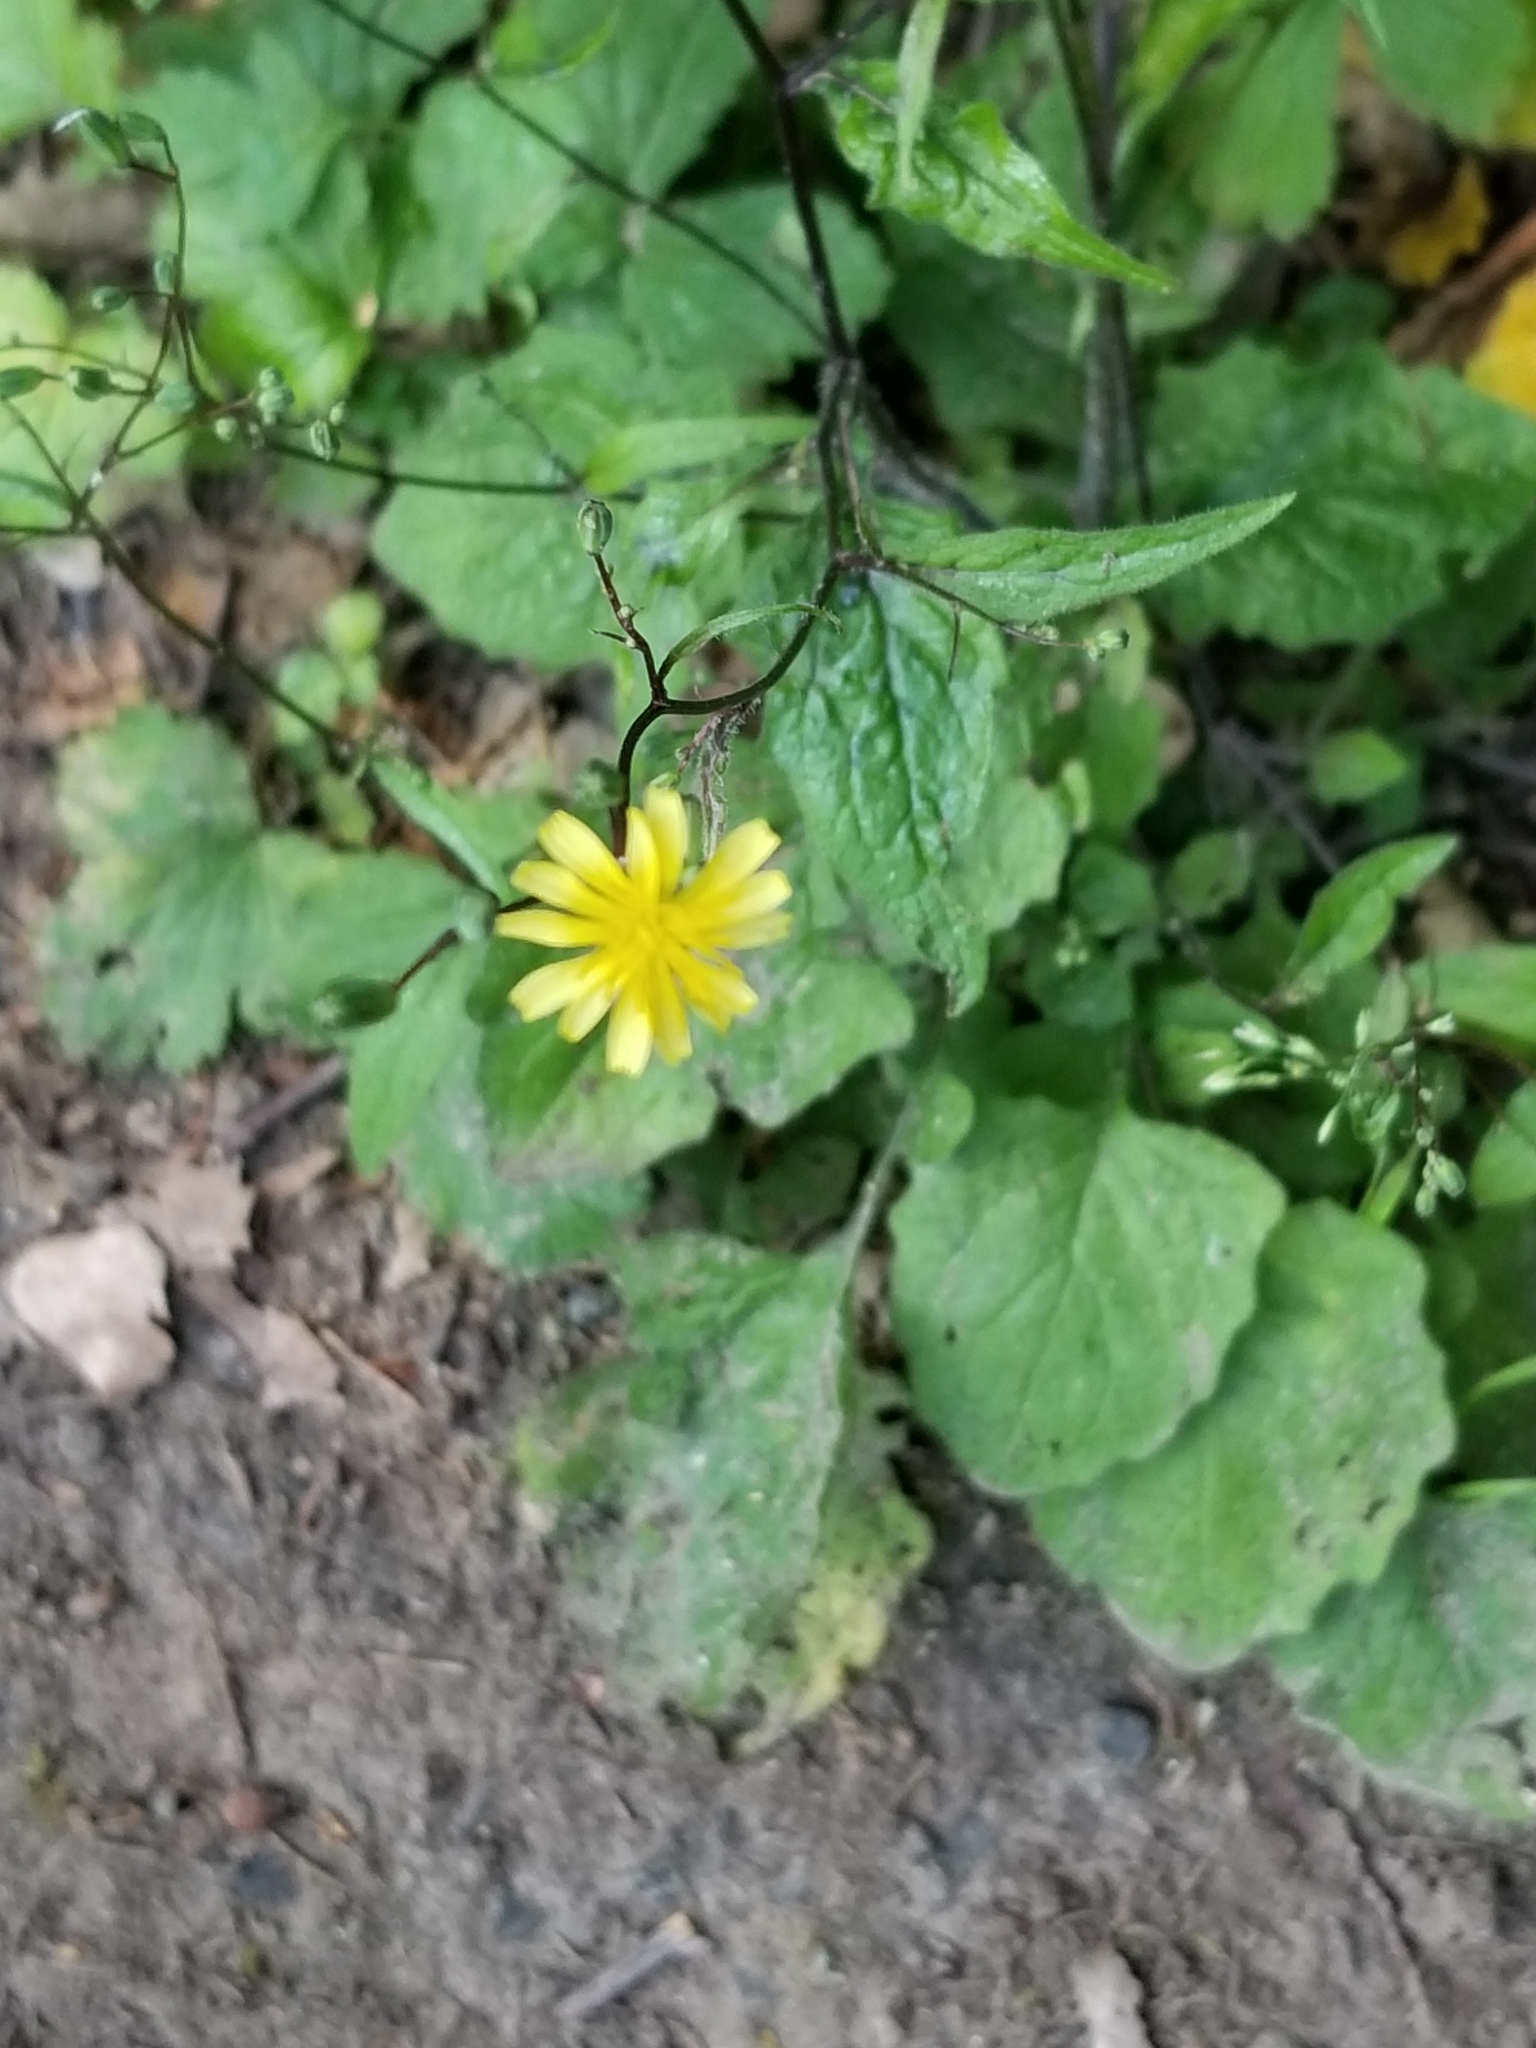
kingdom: Plantae
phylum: Tracheophyta
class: Magnoliopsida
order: Asterales
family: Asteraceae
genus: Lapsana
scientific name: Lapsana communis
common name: Nipplewort
